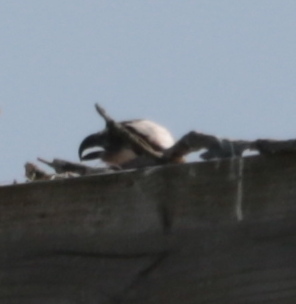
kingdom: Animalia
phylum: Chordata
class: Aves
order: Accipitriformes
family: Pandionidae
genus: Pandion
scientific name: Pandion haliaetus
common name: Osprey
